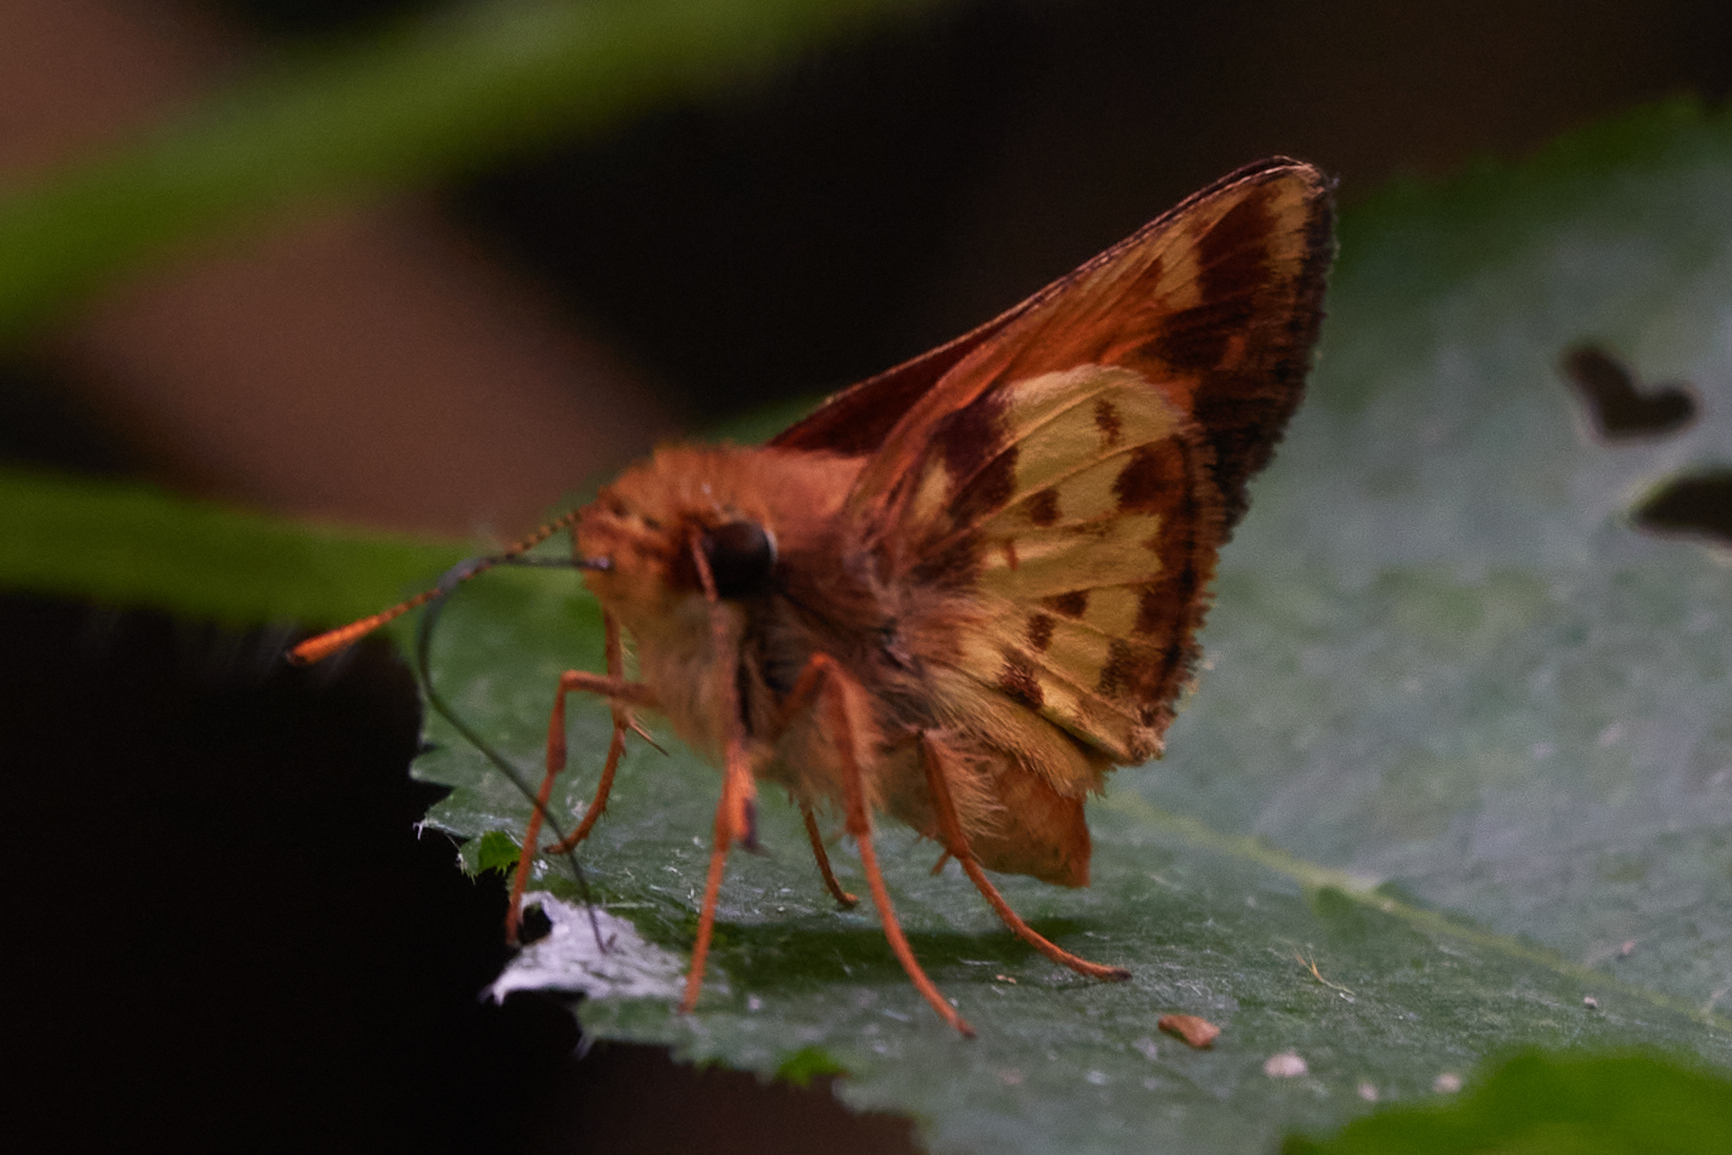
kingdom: Animalia
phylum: Arthropoda
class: Insecta
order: Lepidoptera
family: Hesperiidae
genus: Lon
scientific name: Lon zabulon
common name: Zabulon skipper
